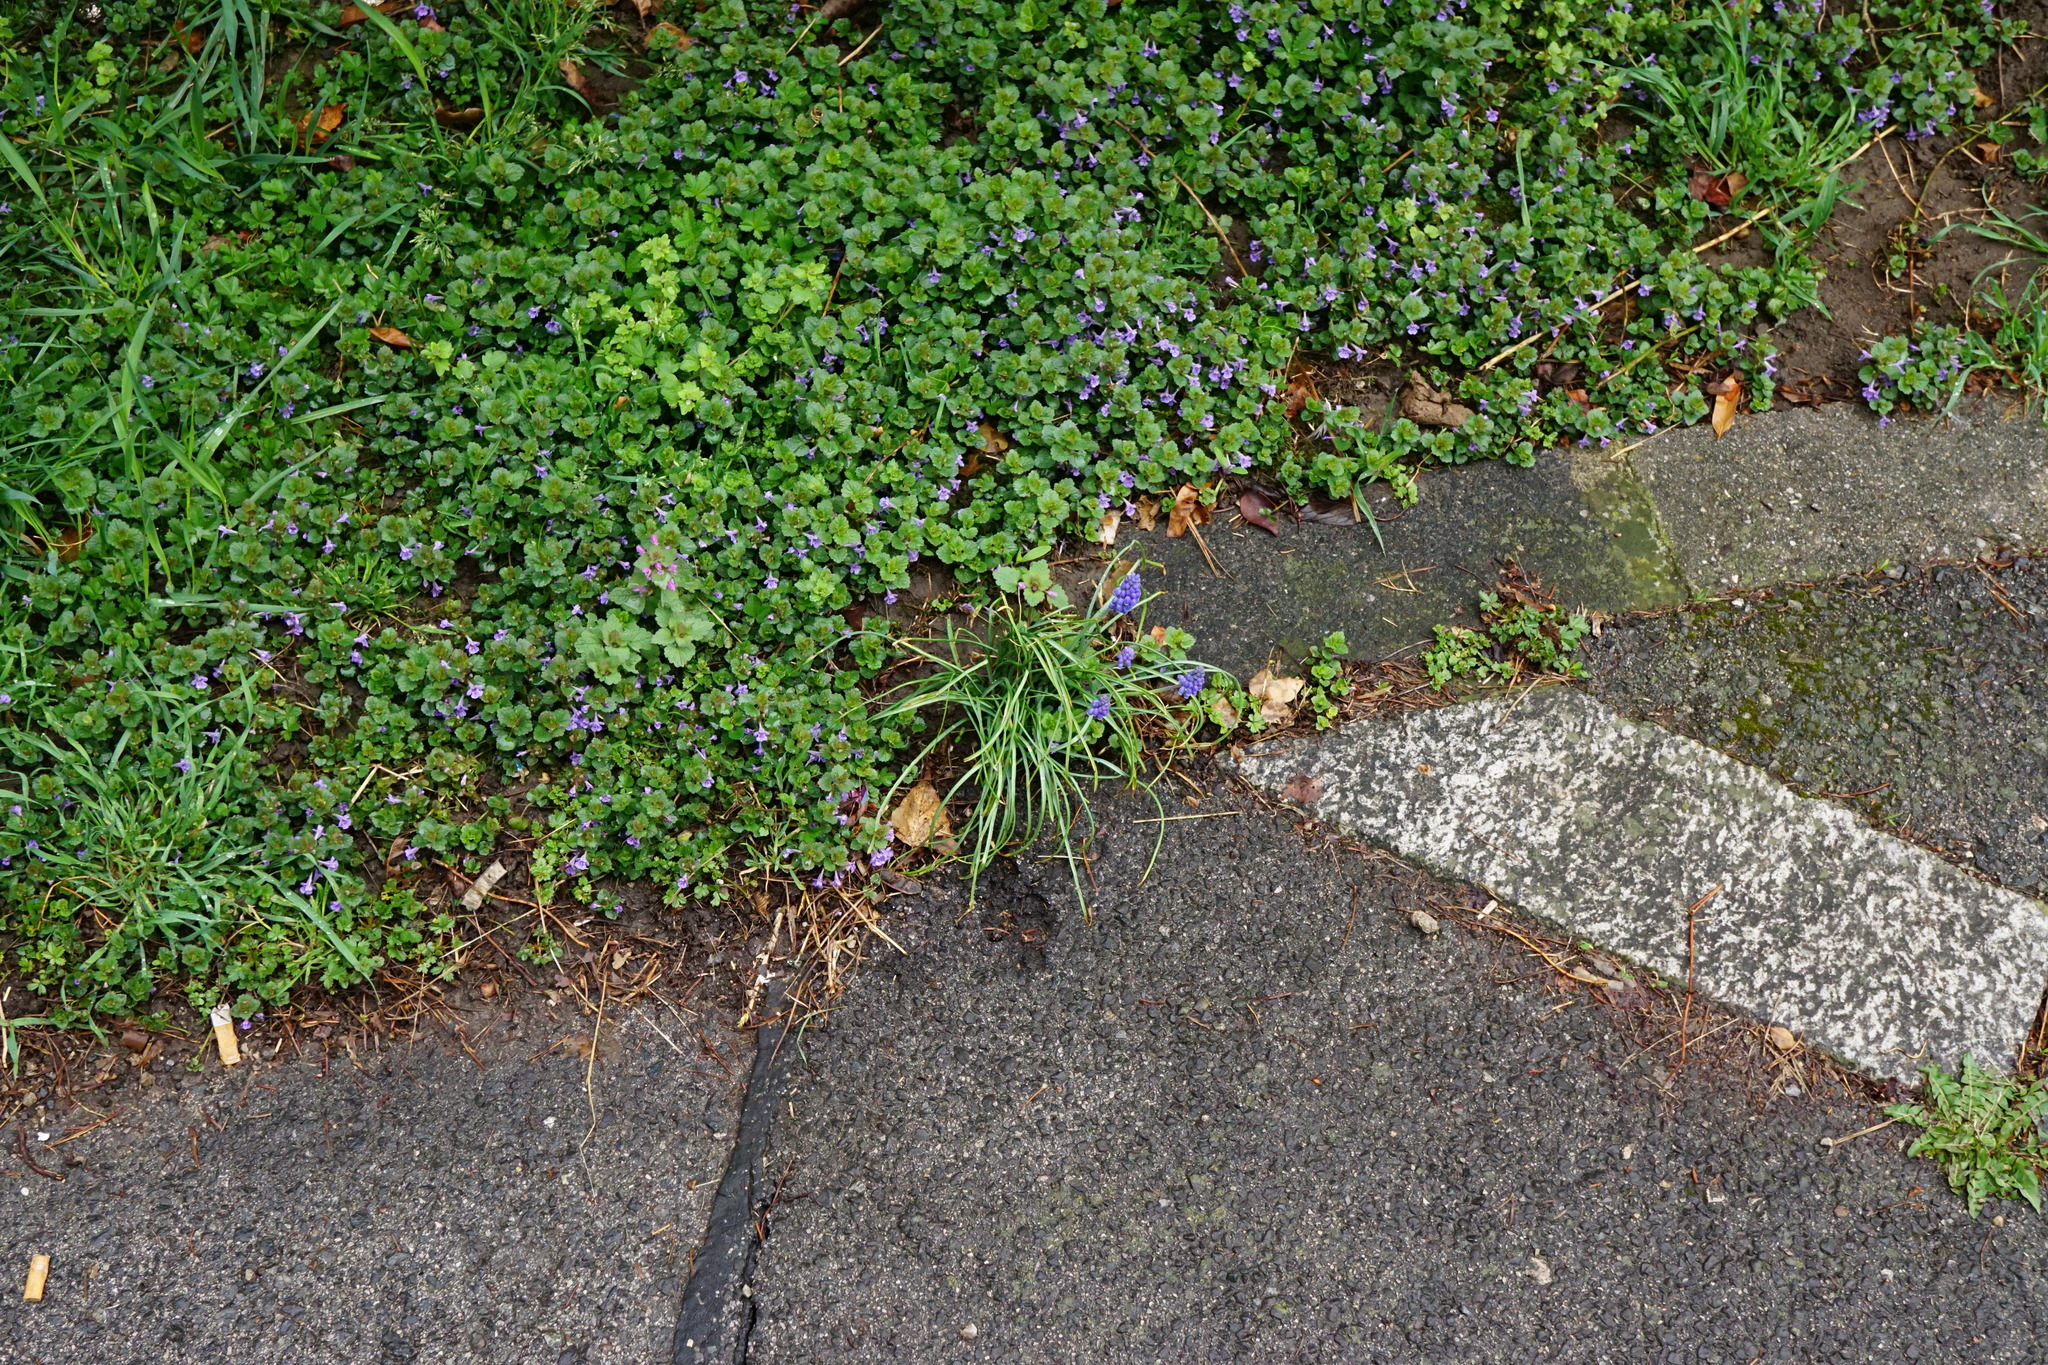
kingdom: Plantae
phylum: Tracheophyta
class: Liliopsida
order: Asparagales
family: Asparagaceae
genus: Muscari
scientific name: Muscari armeniacum
